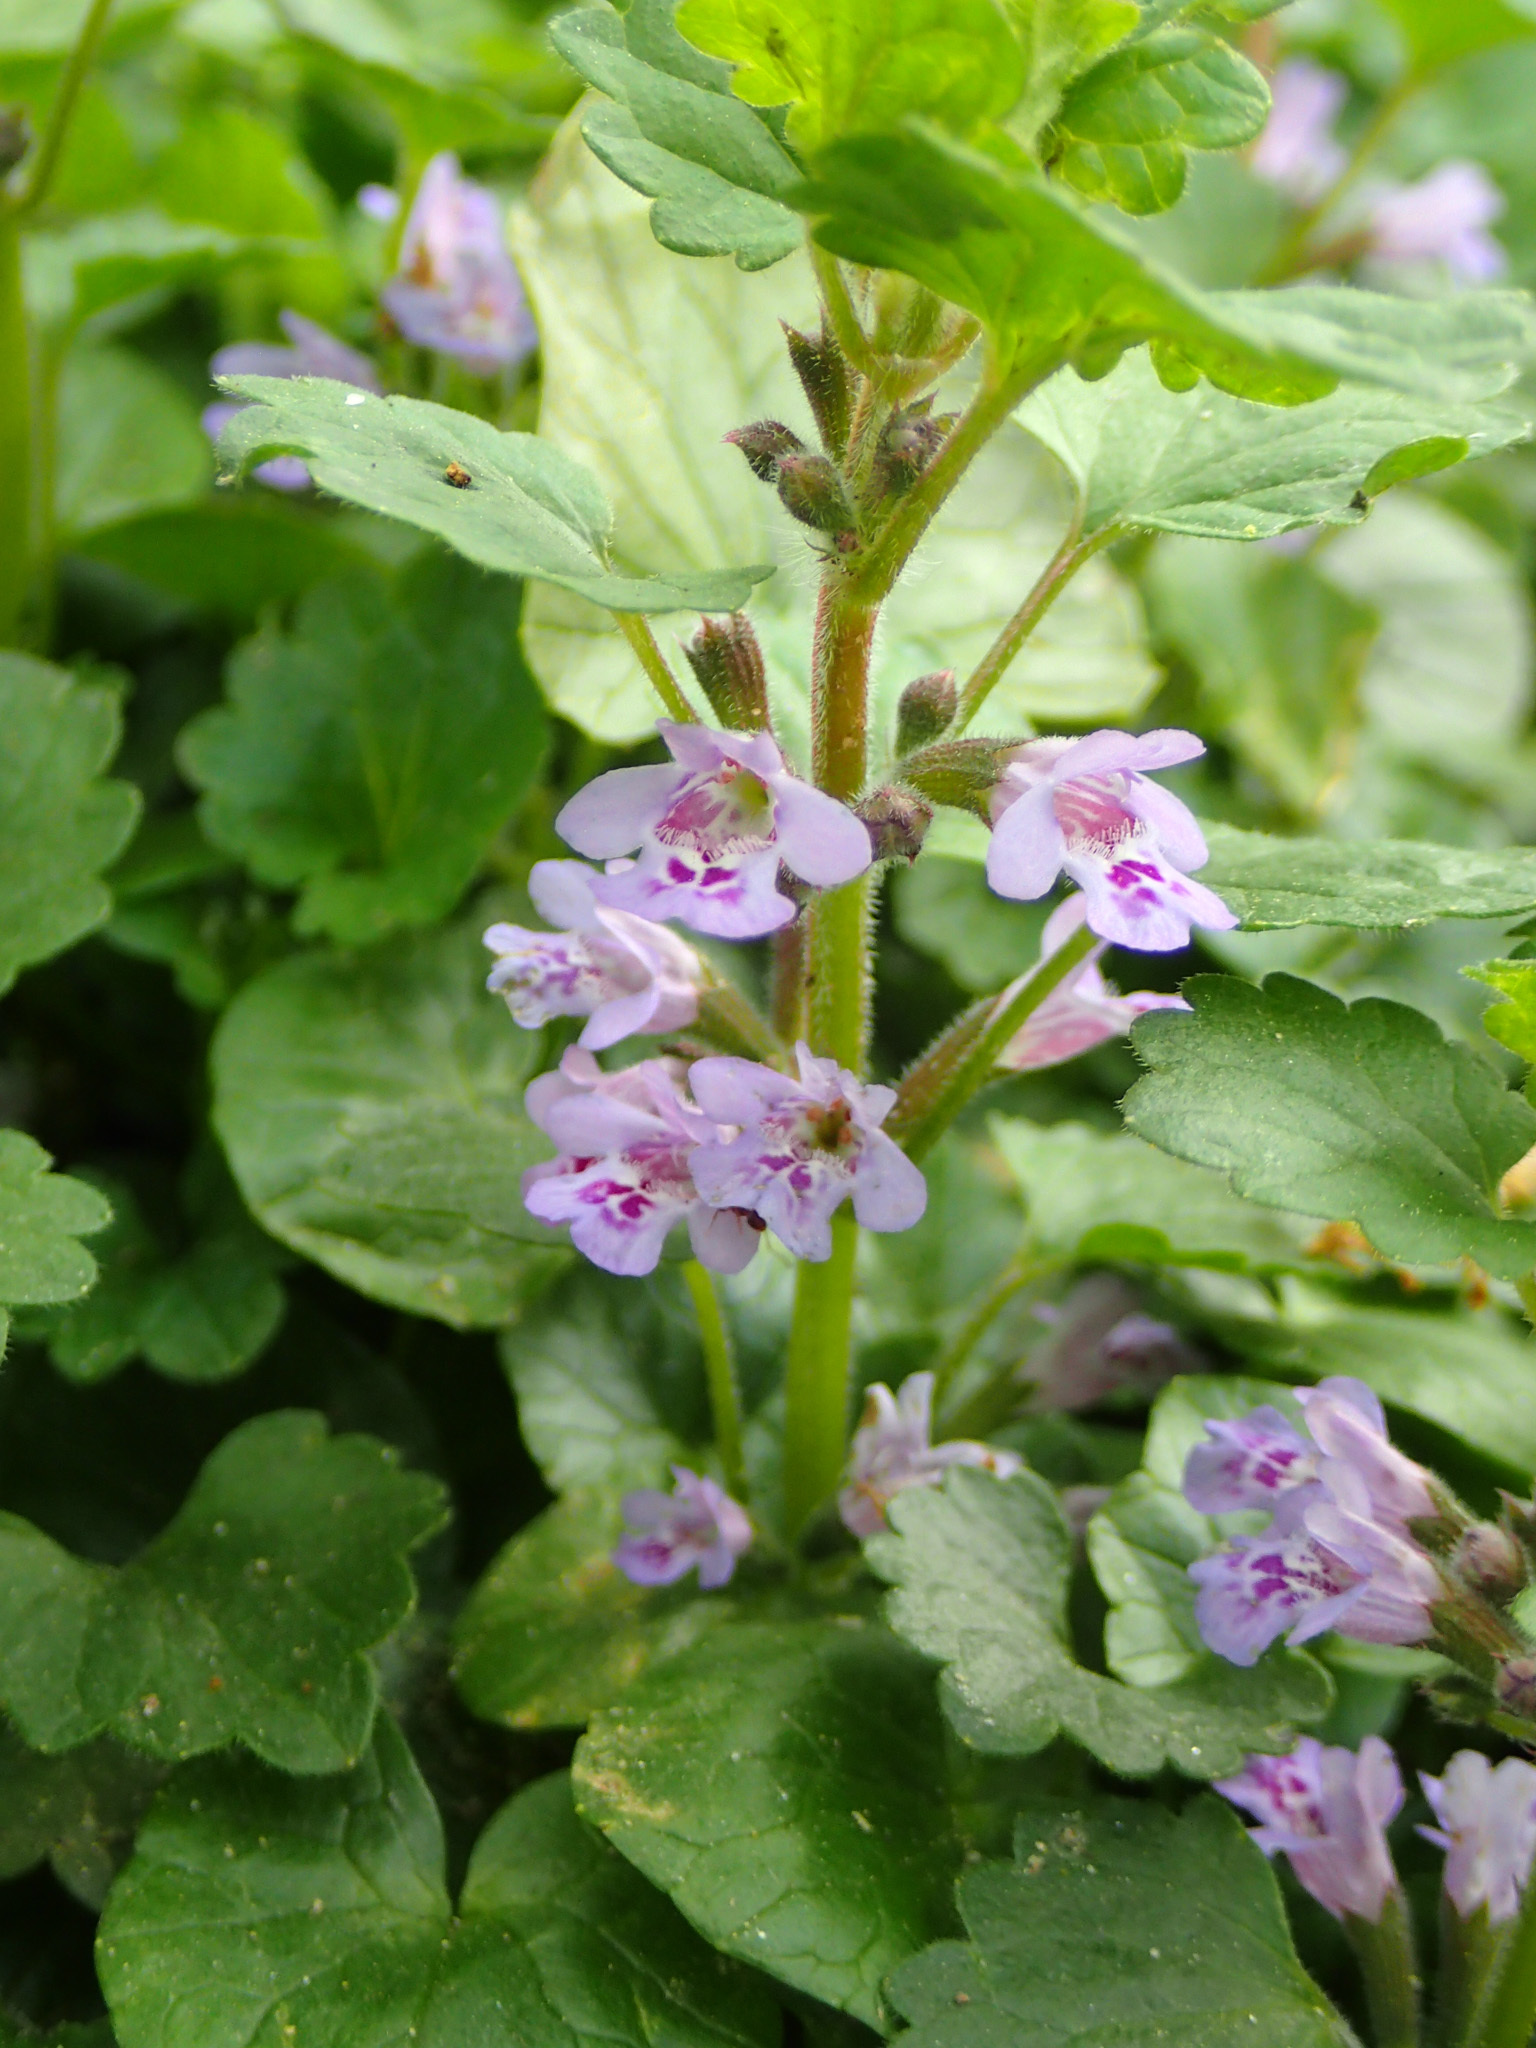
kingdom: Plantae
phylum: Tracheophyta
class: Magnoliopsida
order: Lamiales
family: Lamiaceae
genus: Glechoma
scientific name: Glechoma hederacea
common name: Ground ivy
